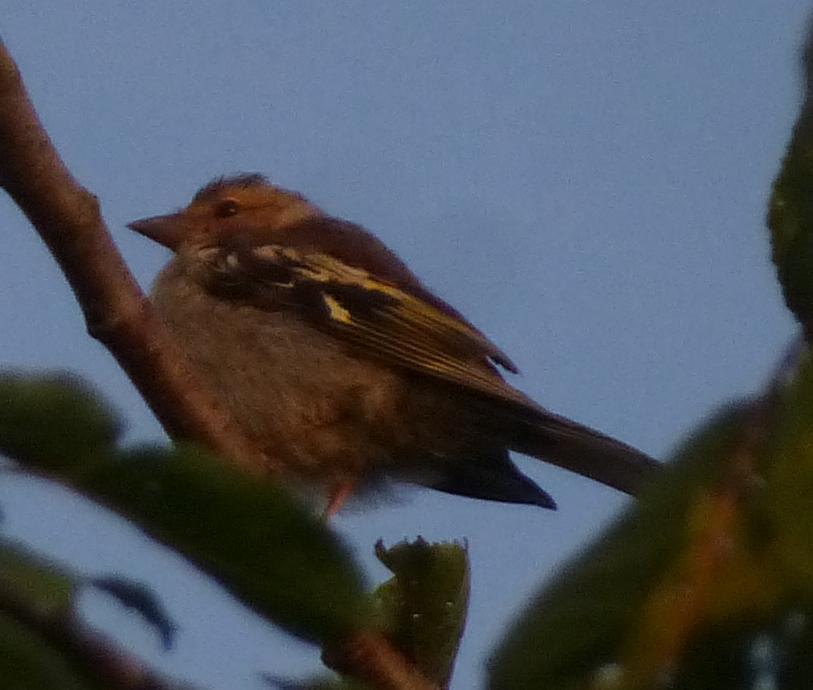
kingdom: Animalia
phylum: Chordata
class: Aves
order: Passeriformes
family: Fringillidae
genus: Fringilla
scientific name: Fringilla coelebs
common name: Common chaffinch
